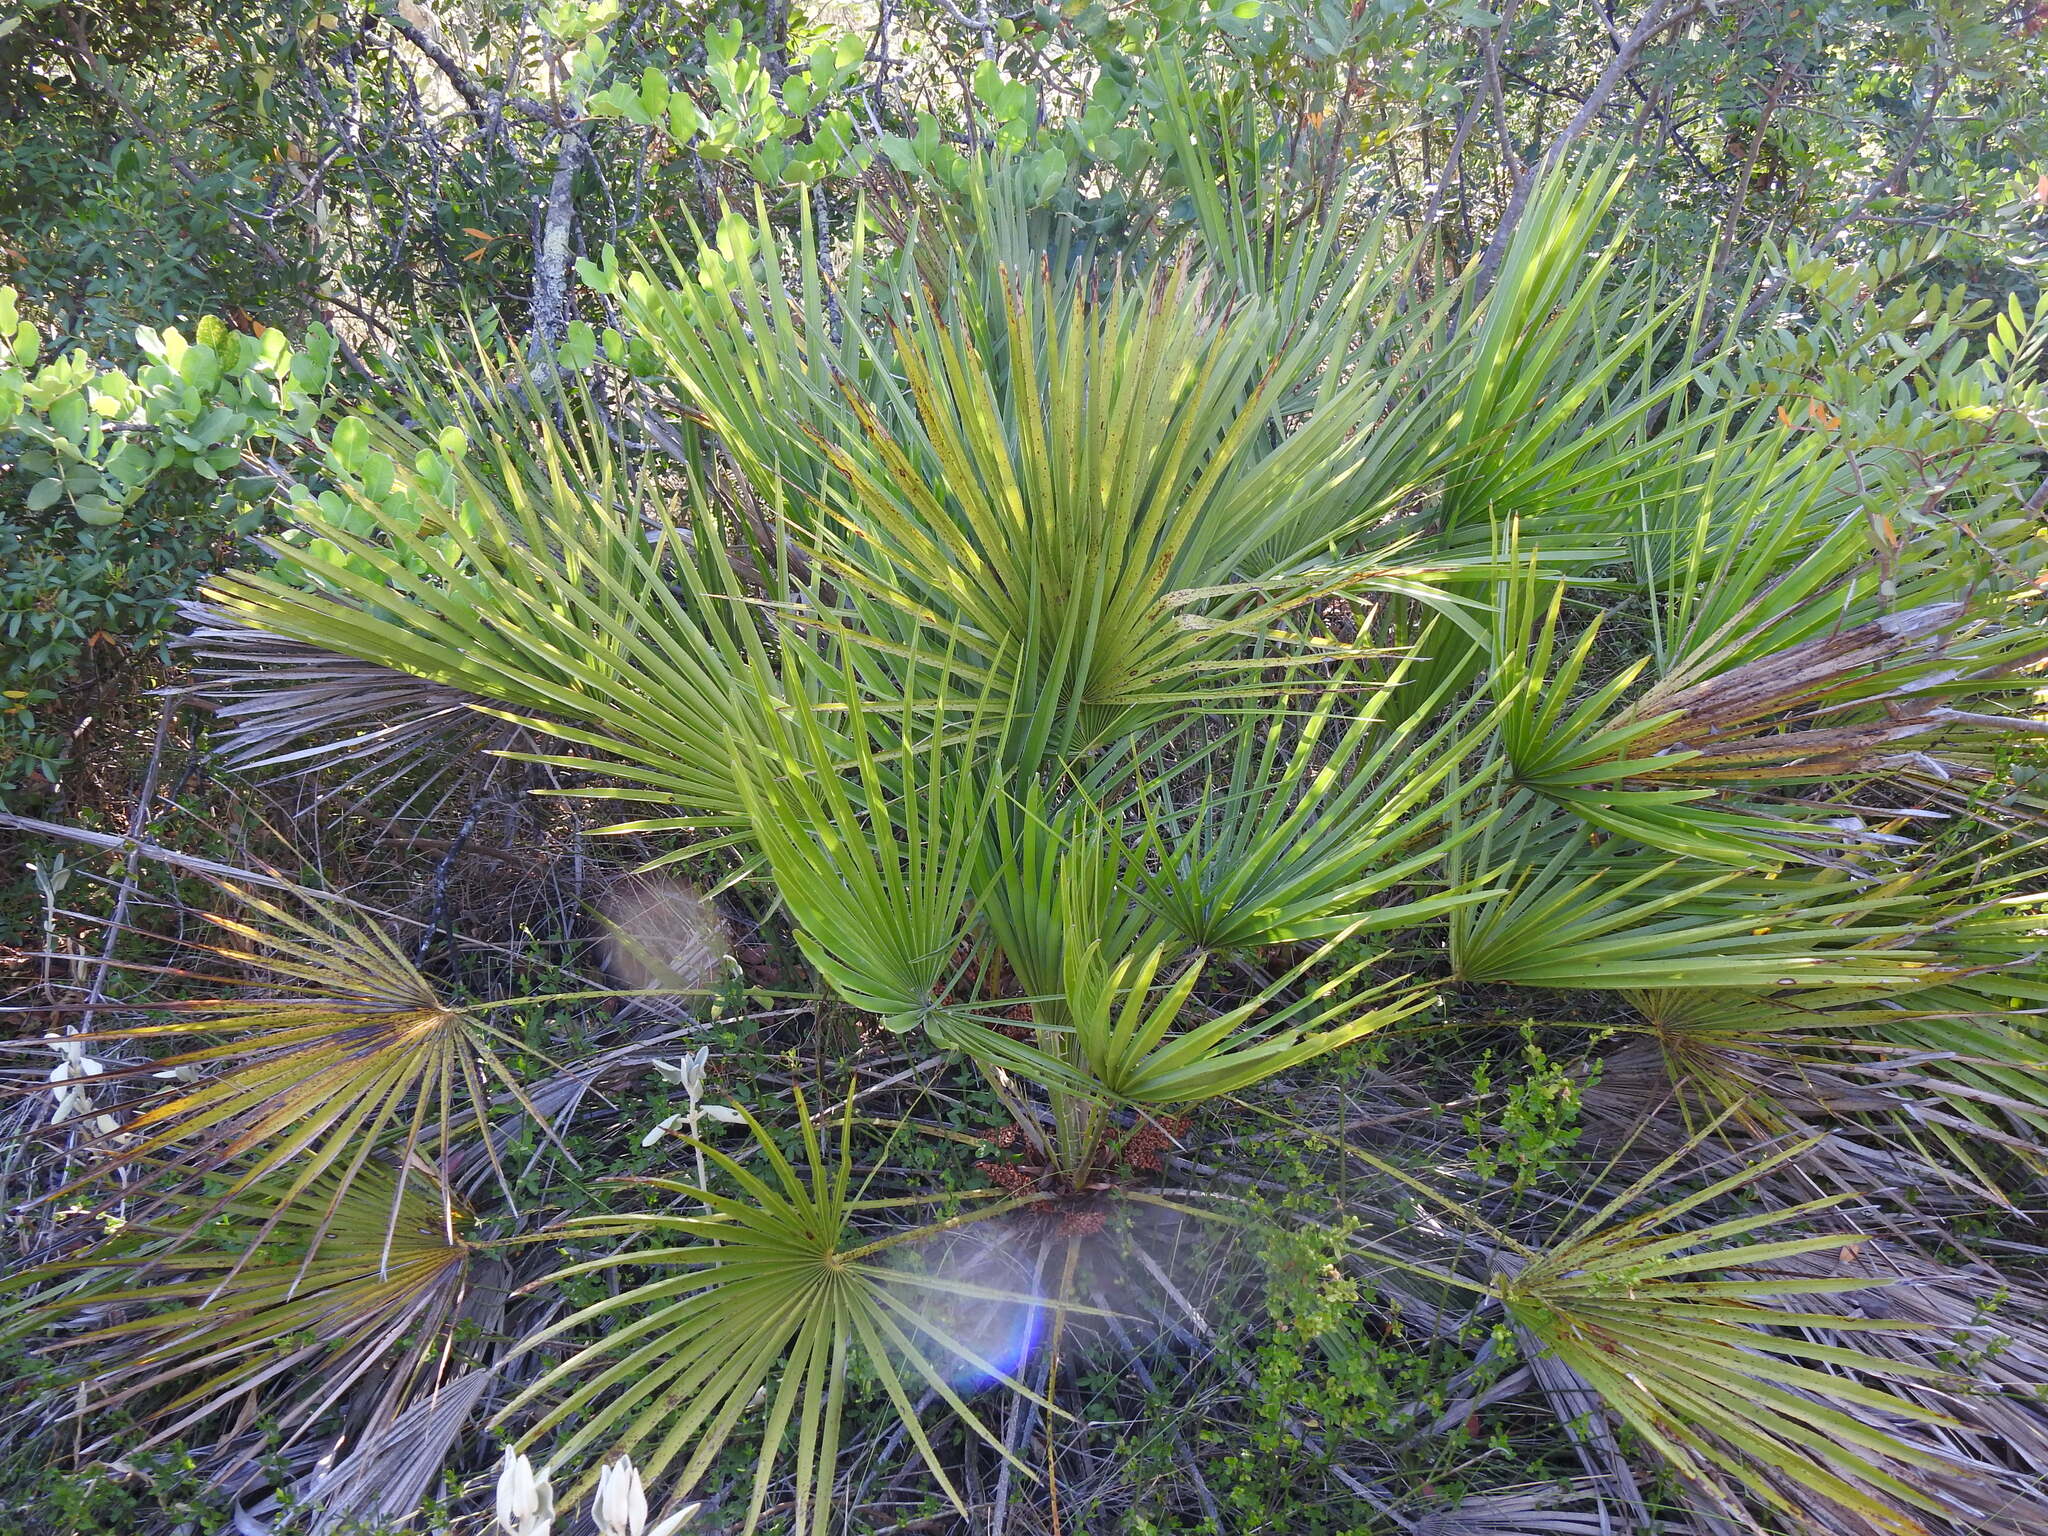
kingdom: Plantae
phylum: Tracheophyta
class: Liliopsida
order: Arecales
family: Arecaceae
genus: Chamaerops
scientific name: Chamaerops humilis
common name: Dwarf fan palm
